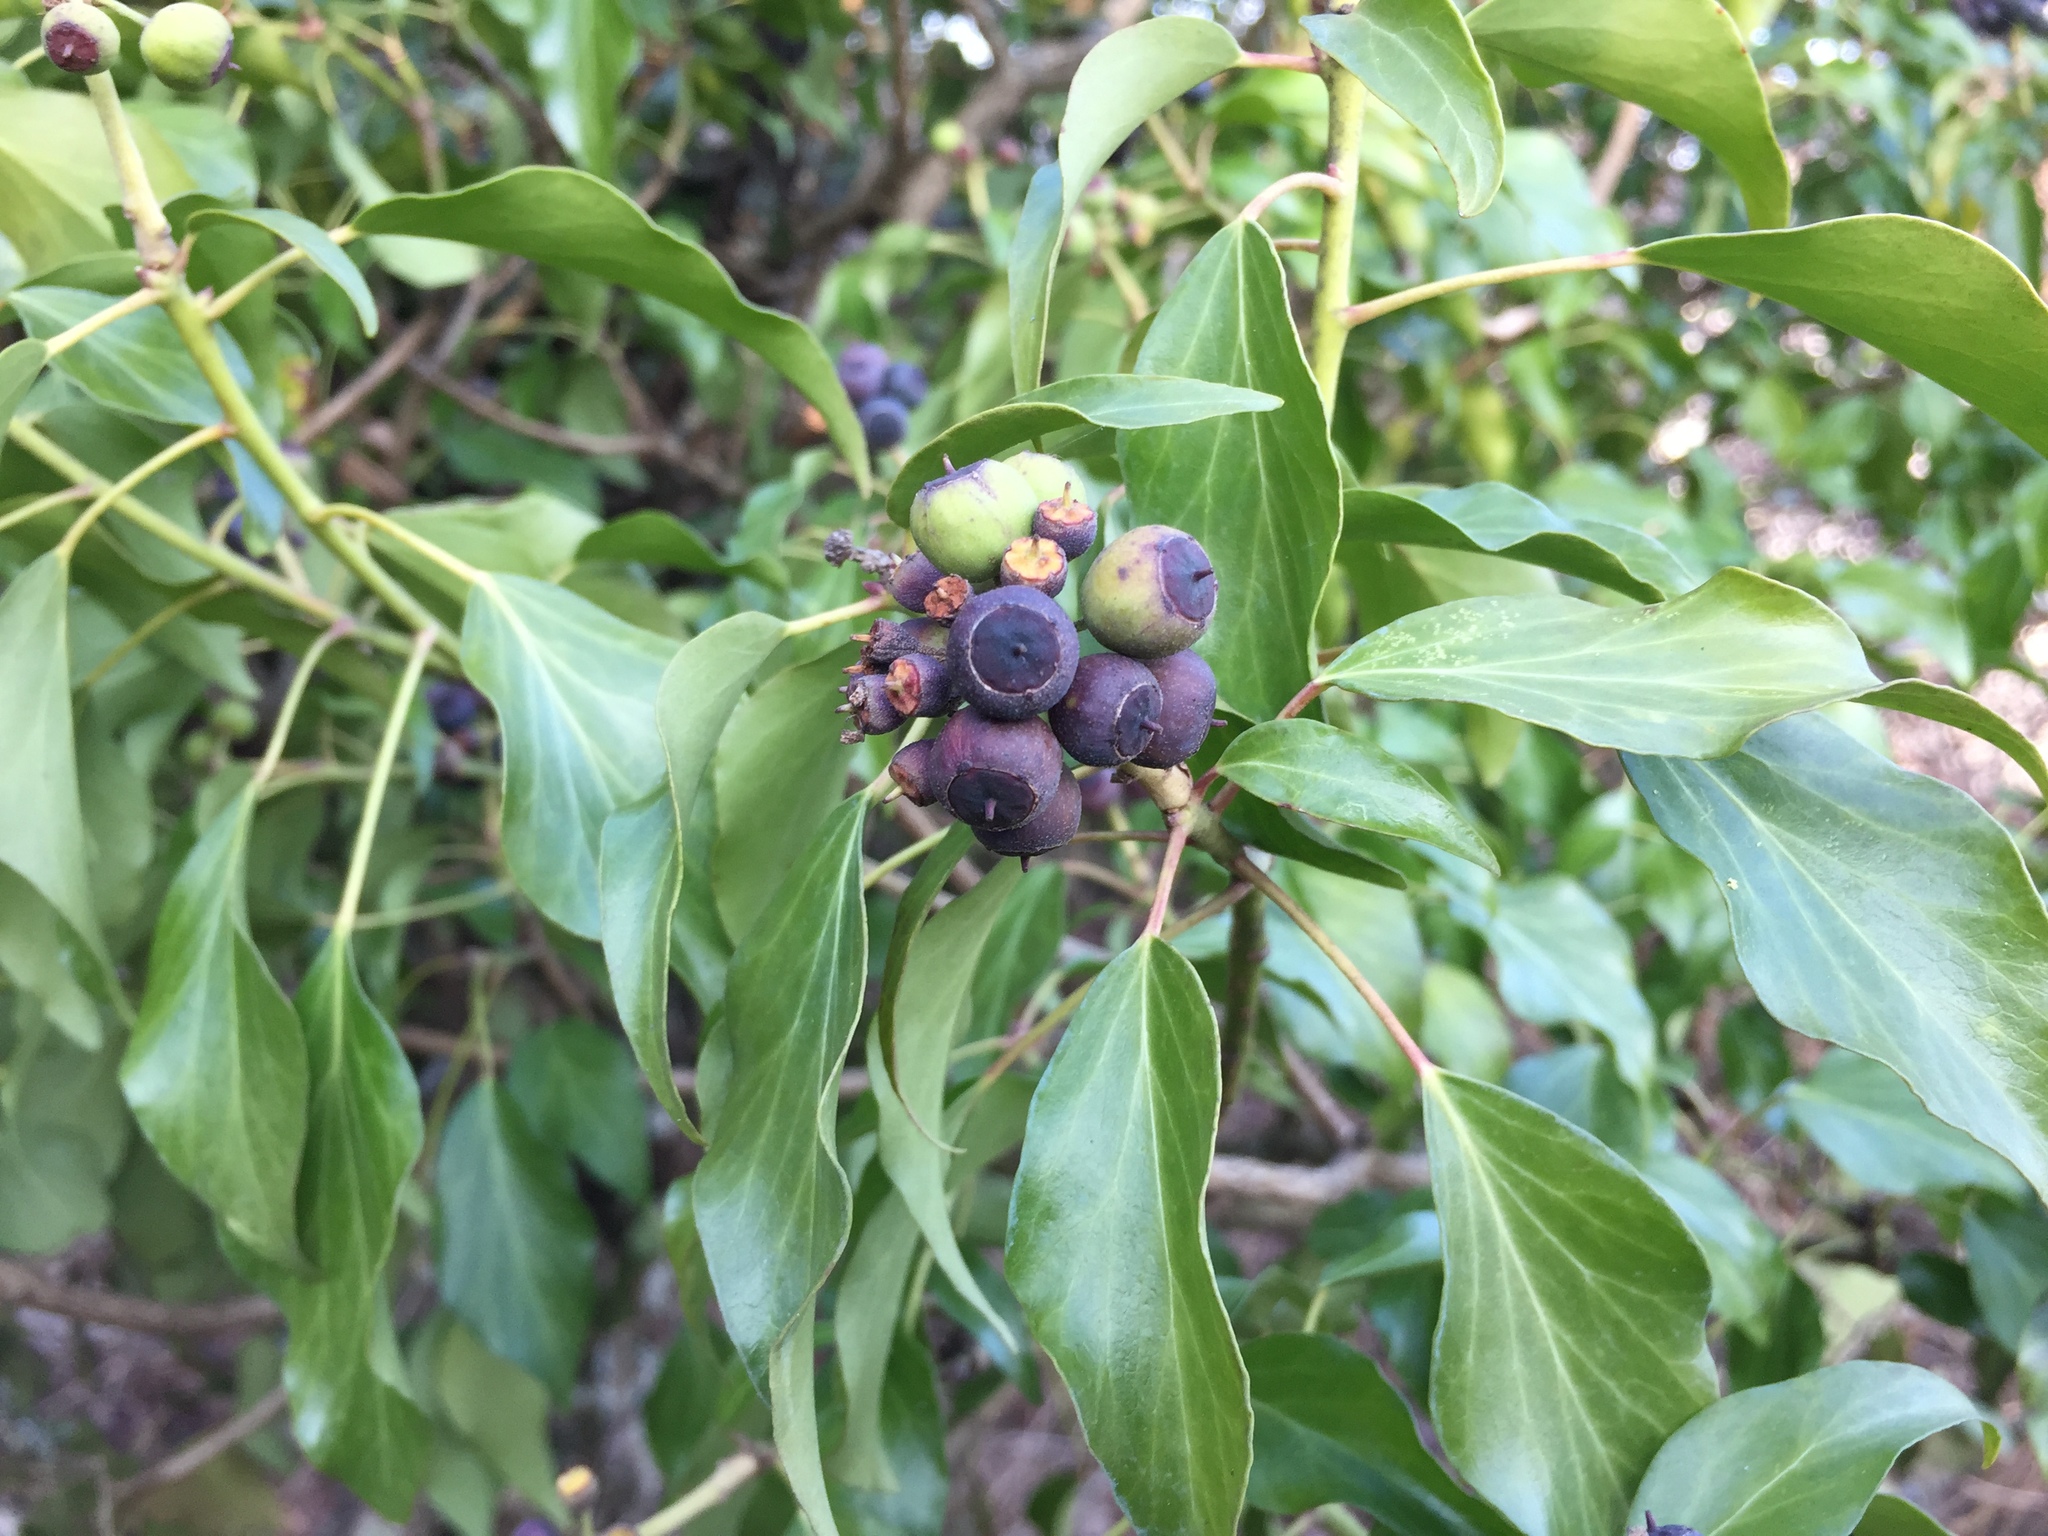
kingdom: Plantae
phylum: Tracheophyta
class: Magnoliopsida
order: Apiales
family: Araliaceae
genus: Hedera
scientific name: Hedera helix
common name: Ivy
